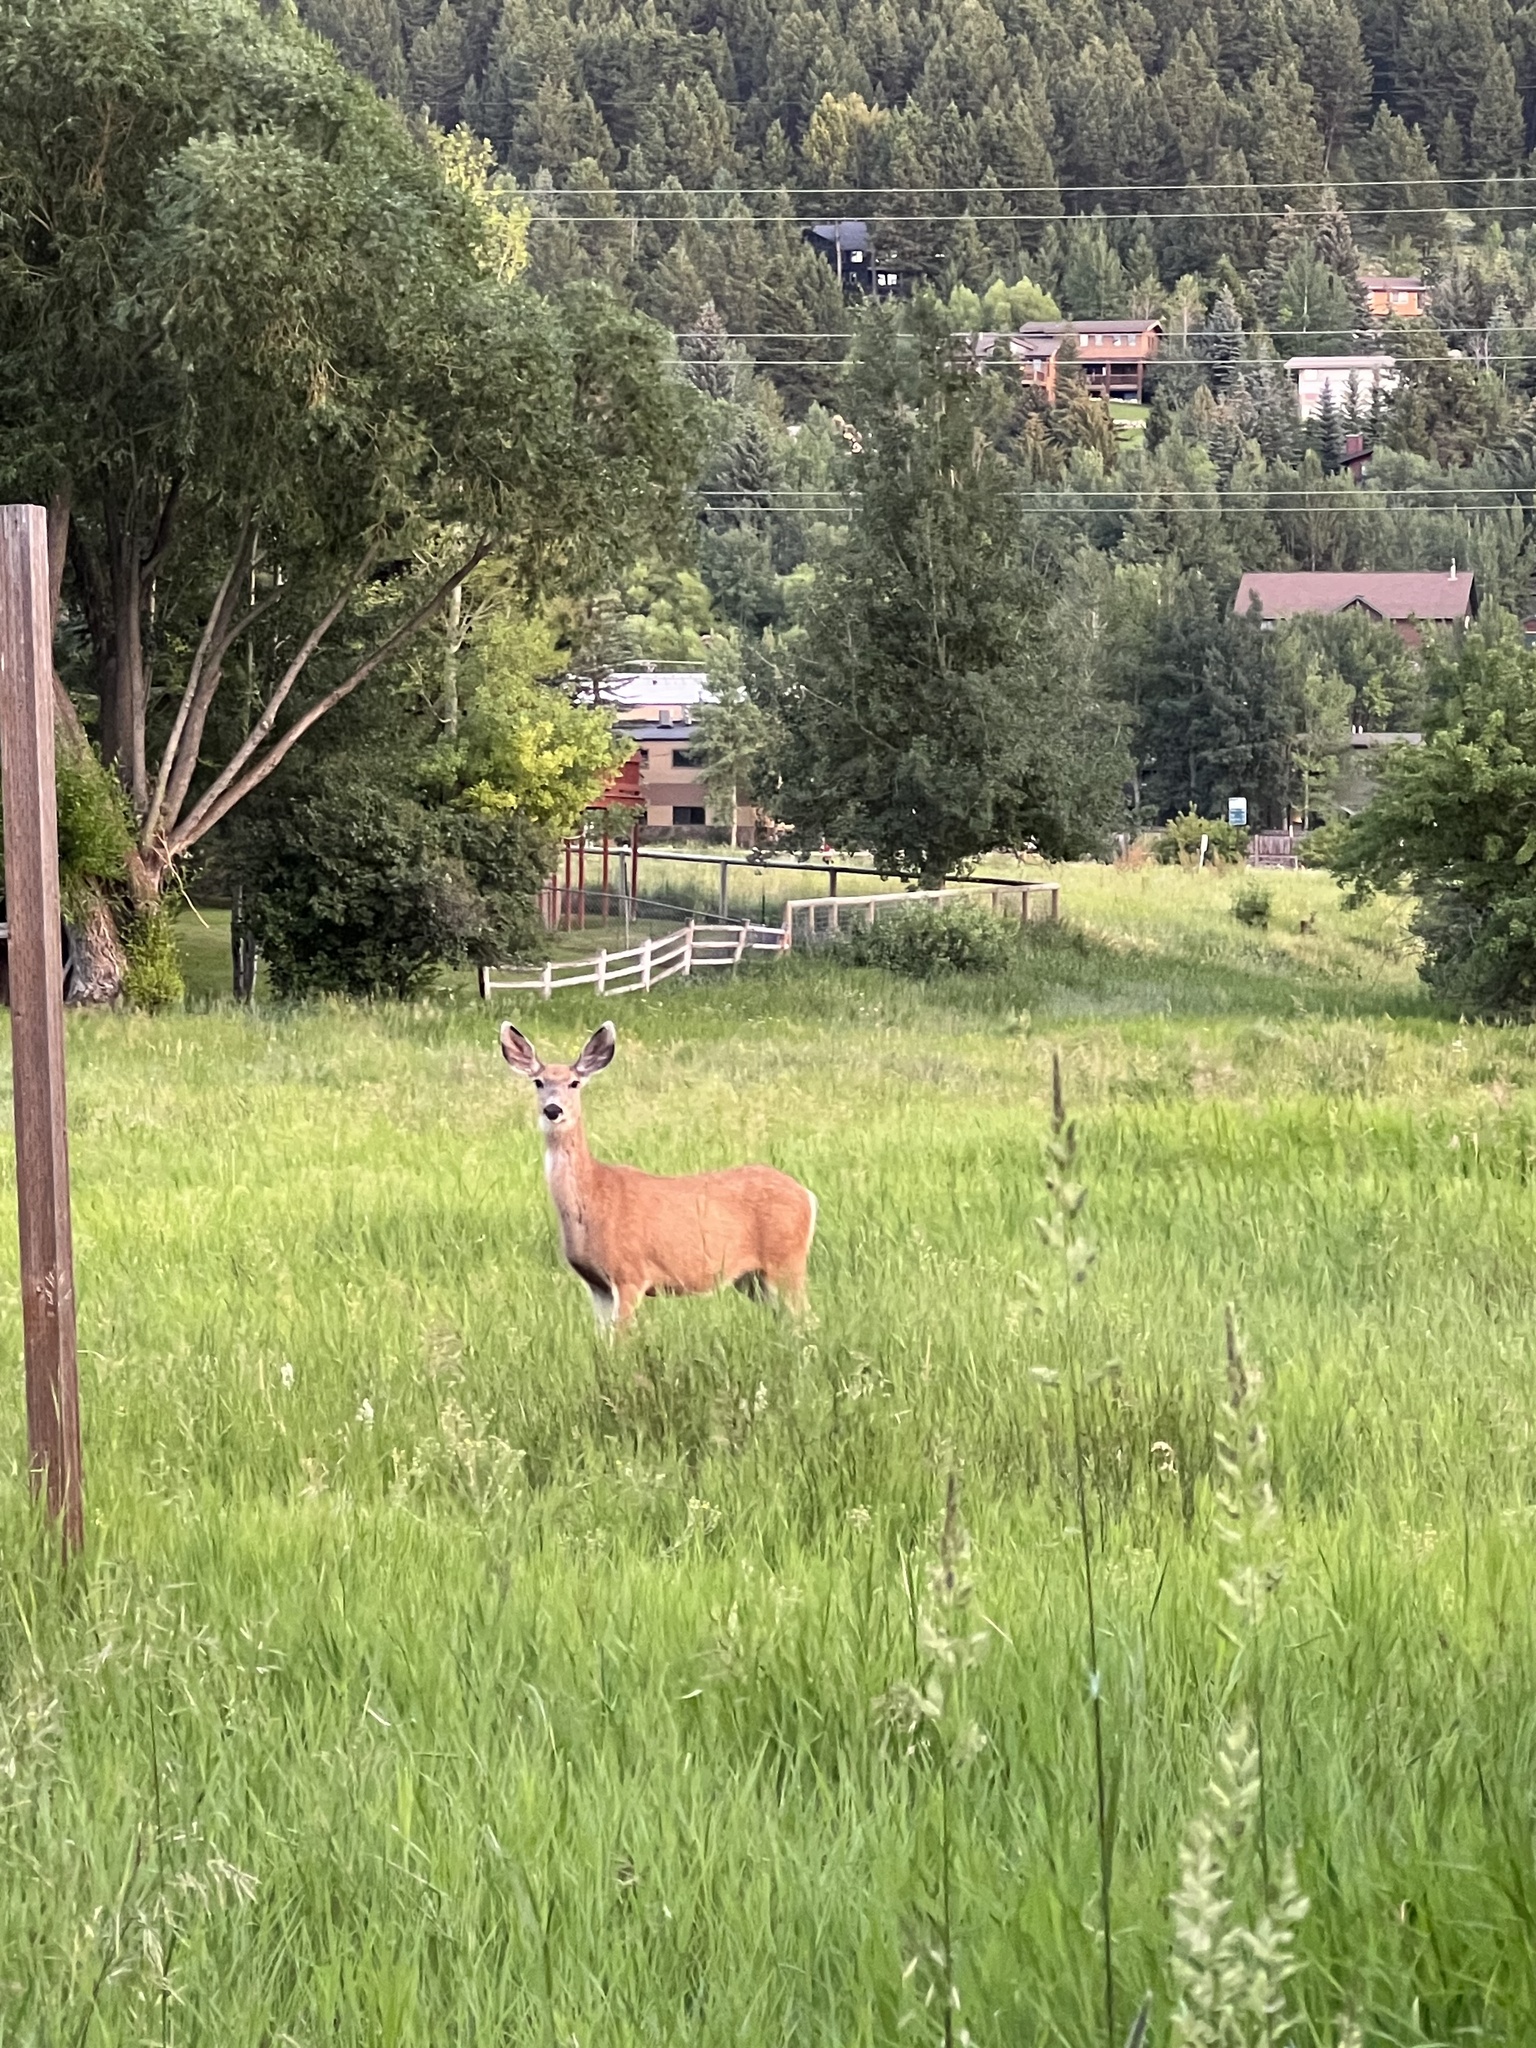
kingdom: Animalia
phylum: Chordata
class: Mammalia
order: Artiodactyla
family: Cervidae
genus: Odocoileus
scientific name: Odocoileus hemionus
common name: Mule deer
